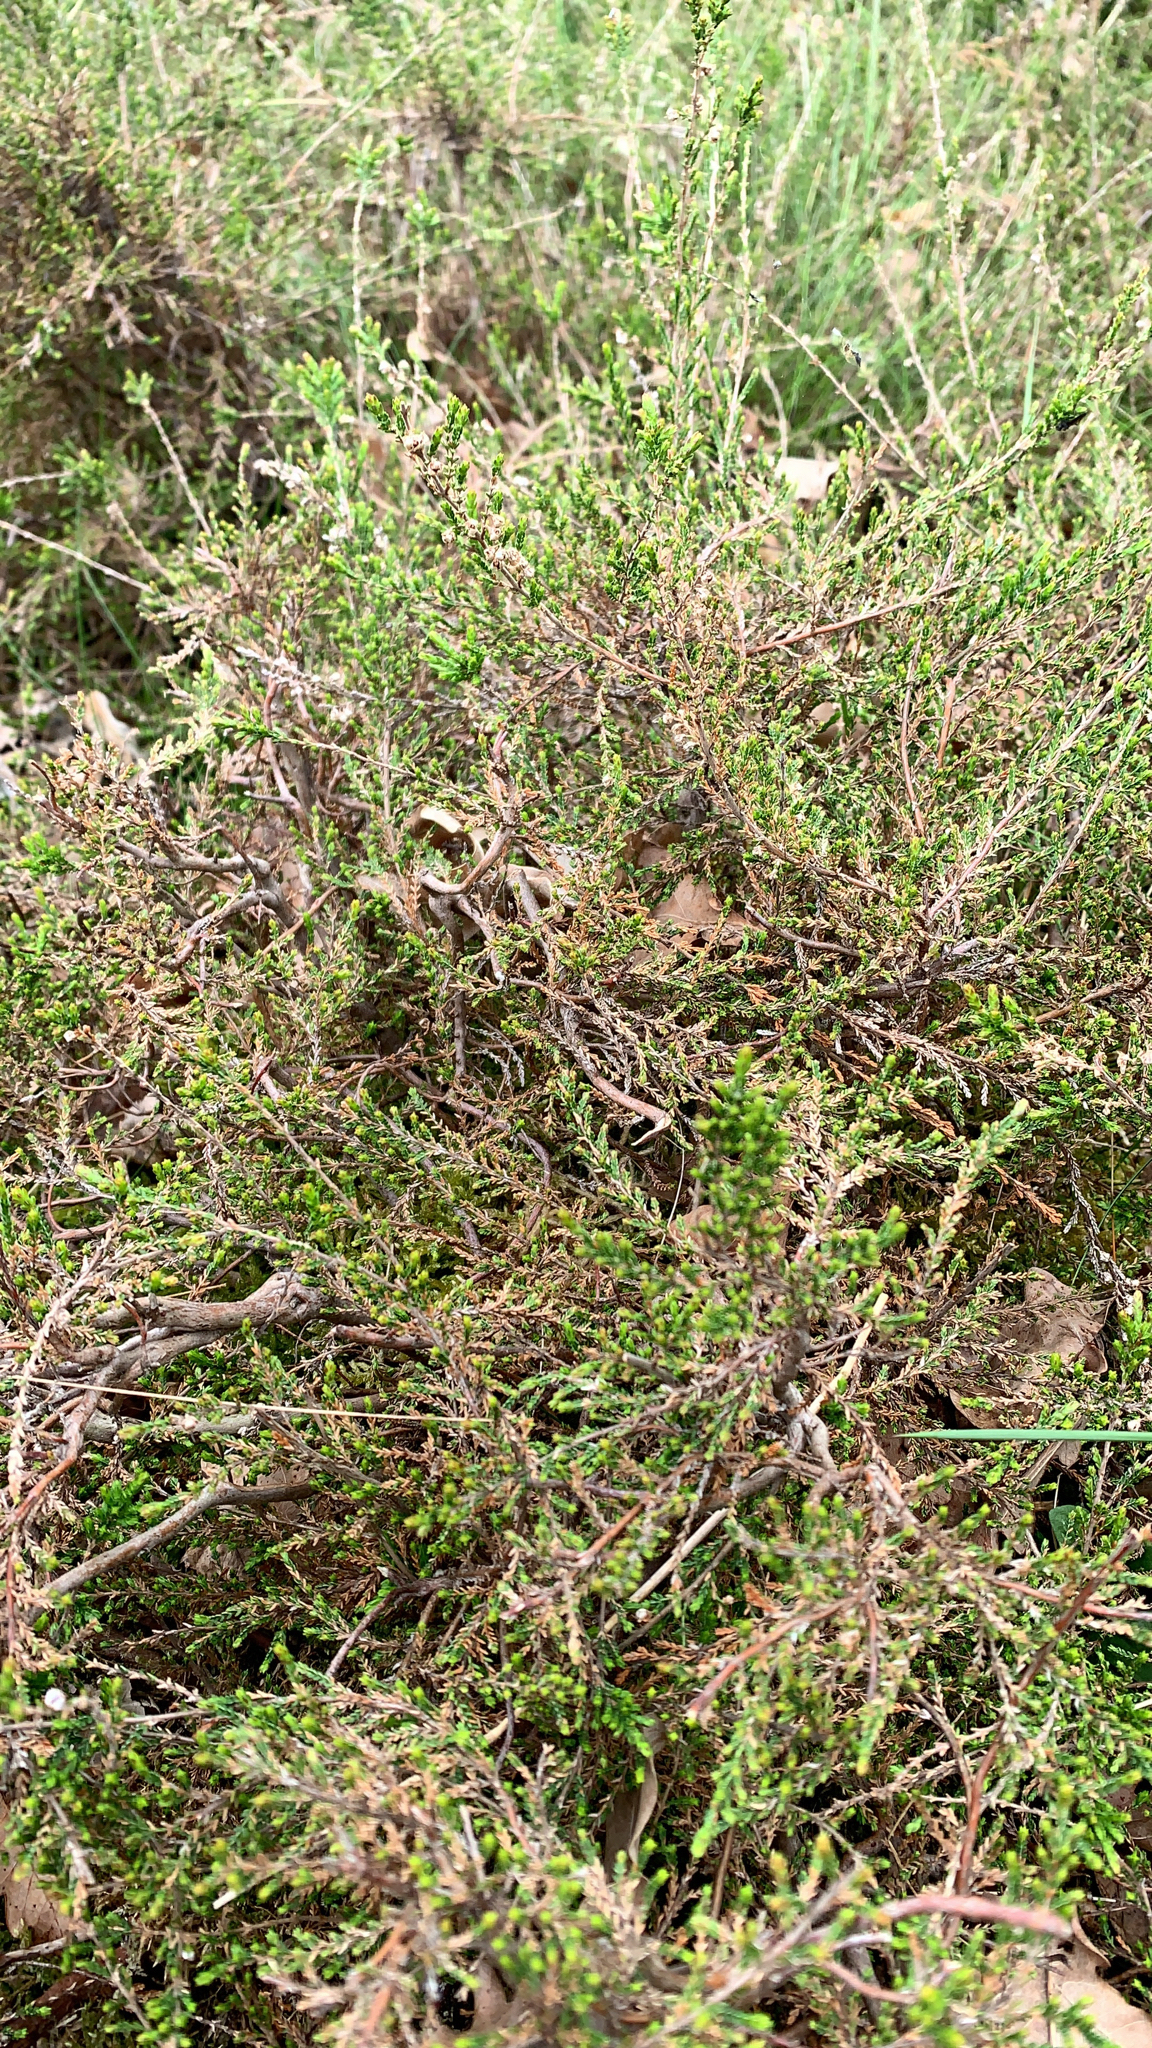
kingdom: Plantae
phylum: Tracheophyta
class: Magnoliopsida
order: Ericales
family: Ericaceae
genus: Calluna
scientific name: Calluna vulgaris
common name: Heather
